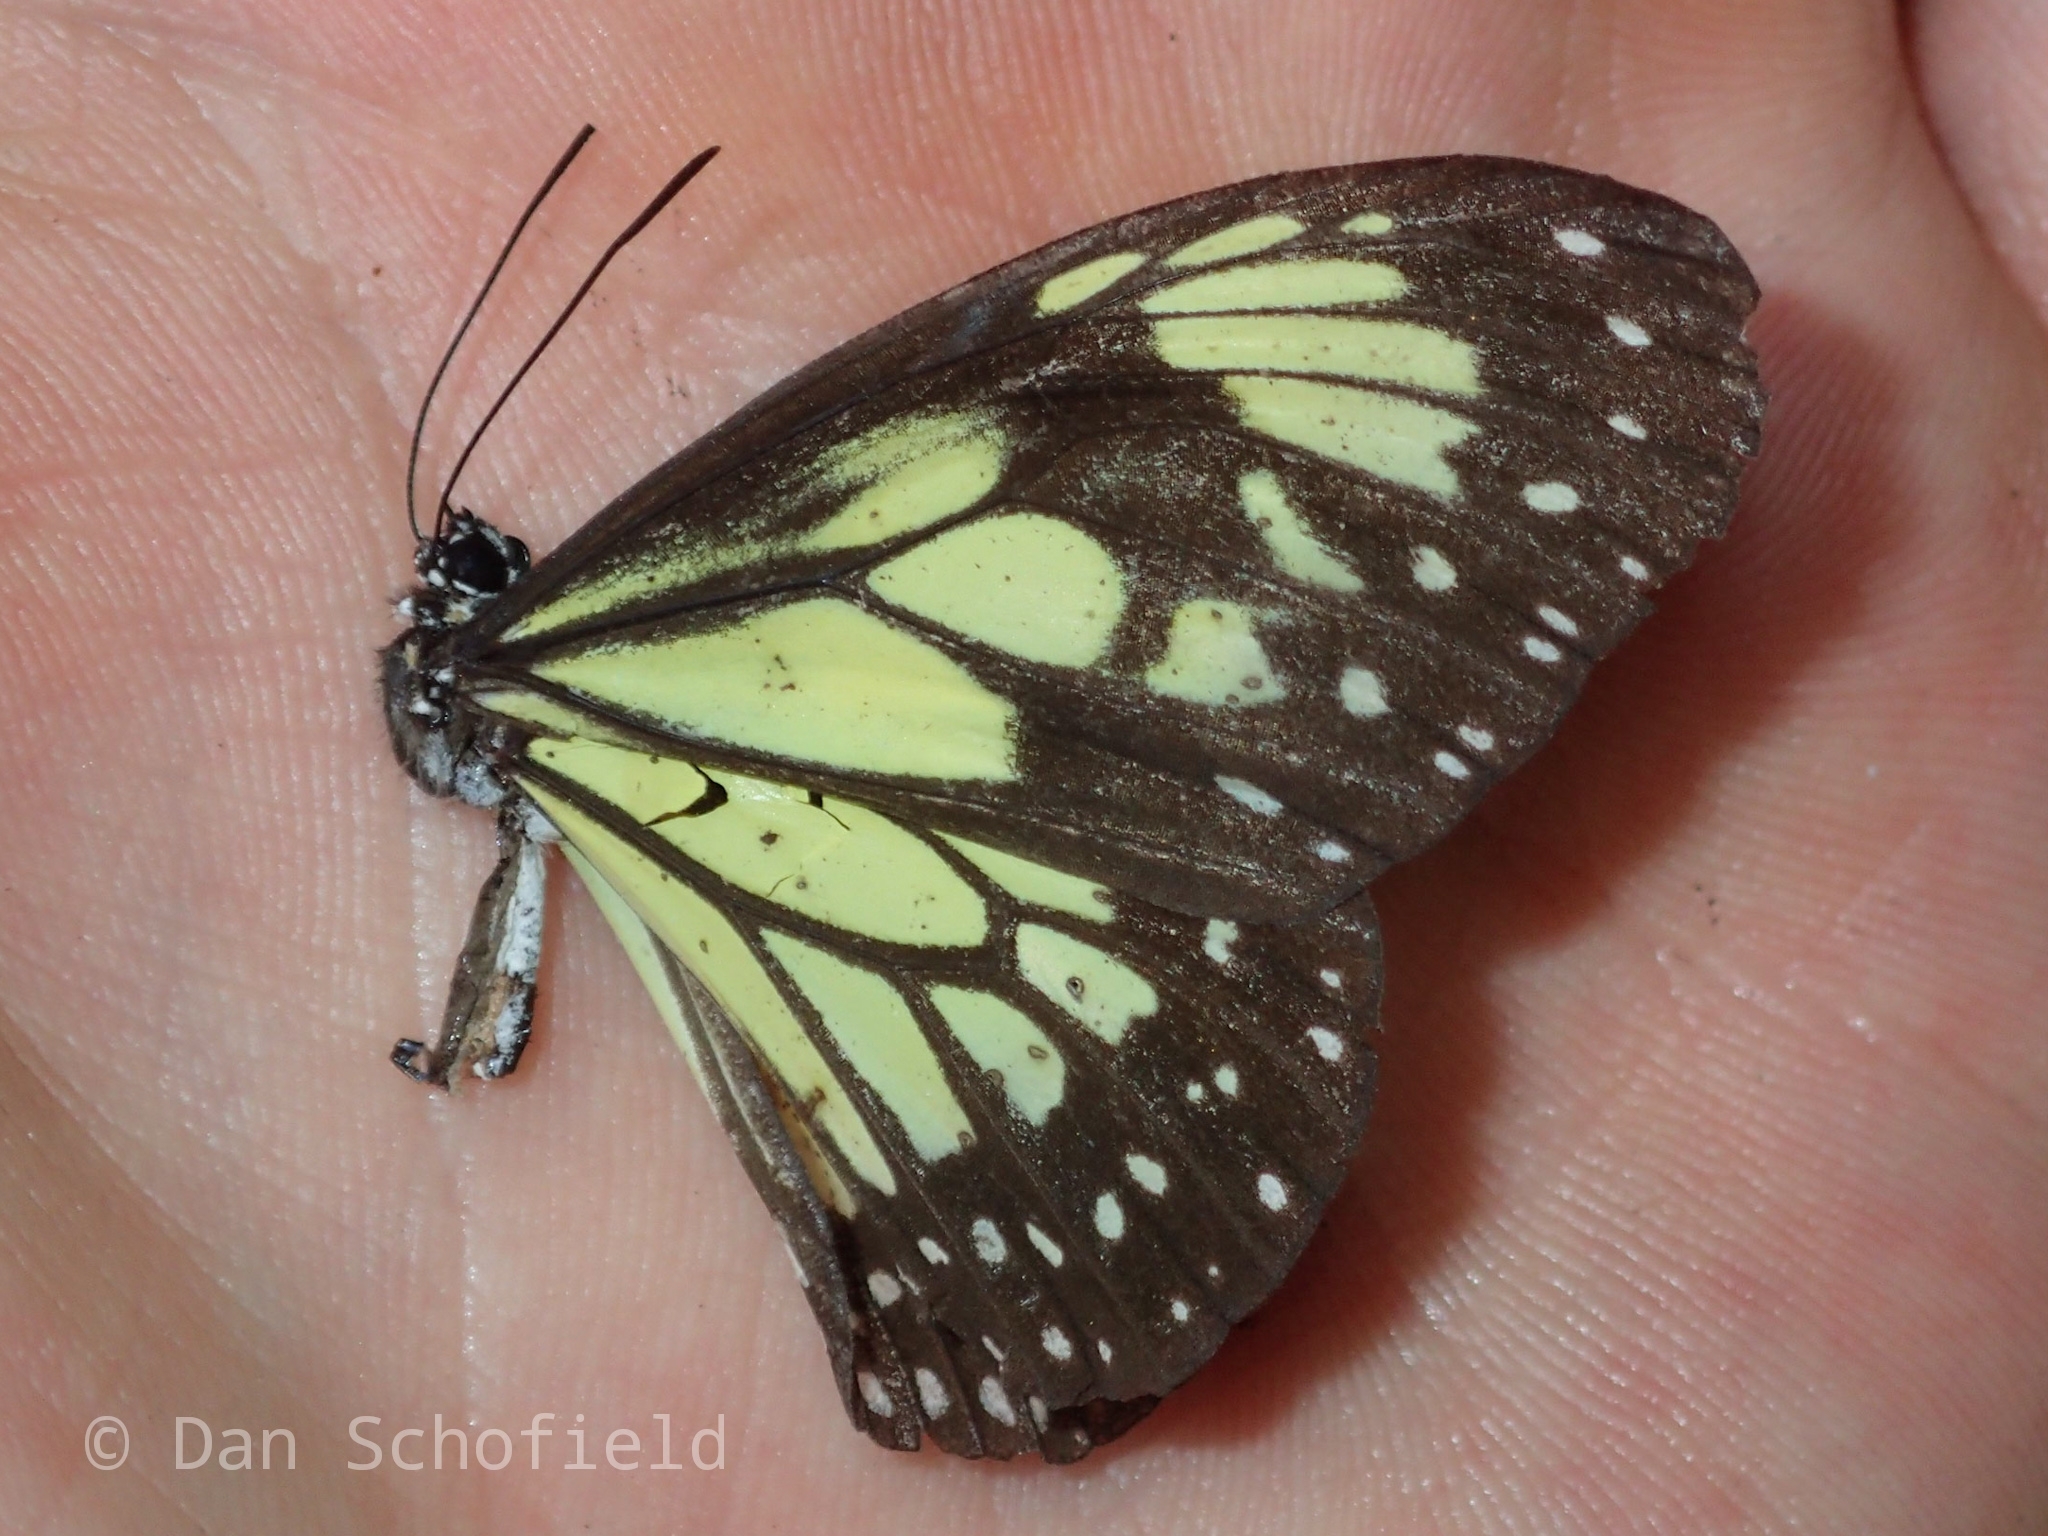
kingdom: Animalia
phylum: Arthropoda
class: Insecta
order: Lepidoptera
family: Nymphalidae
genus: Parantica
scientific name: Parantica cleona
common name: Yellow tiger
